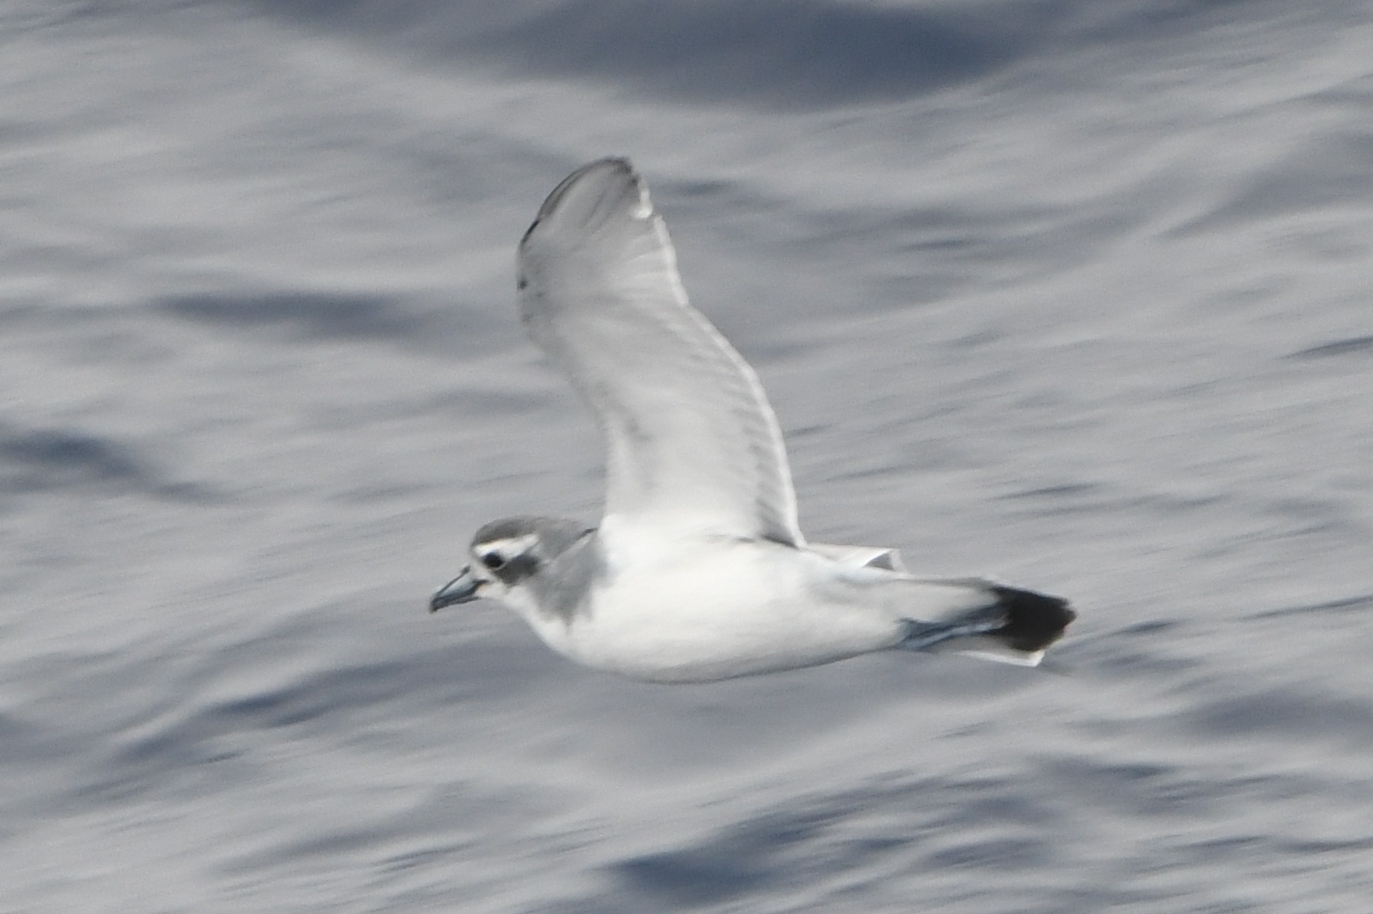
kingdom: Animalia
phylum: Chordata
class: Aves
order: Procellariiformes
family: Procellariidae
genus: Pachyptila
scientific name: Pachyptila desolata
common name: Antarctic prion
